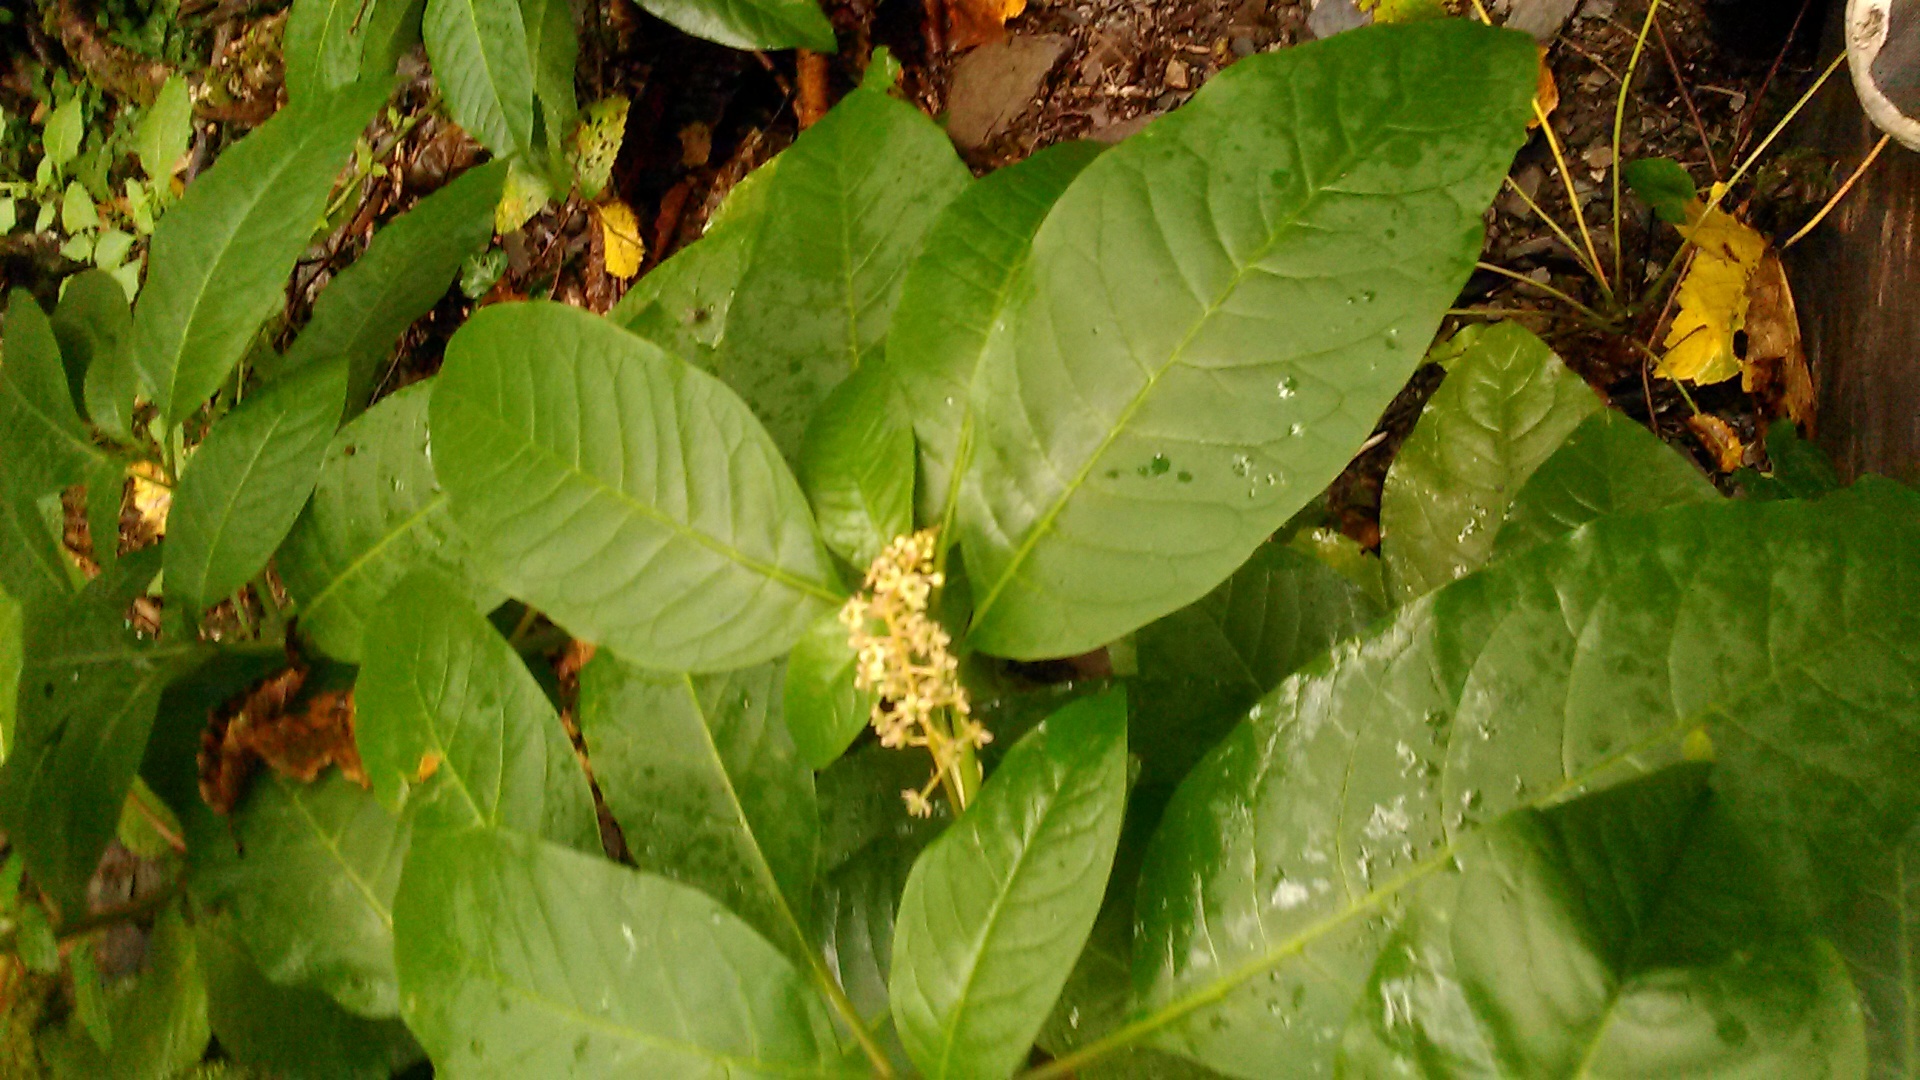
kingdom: Plantae
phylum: Tracheophyta
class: Magnoliopsida
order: Caryophyllales
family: Phytolaccaceae
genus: Phytolacca
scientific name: Phytolacca americana
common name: American pokeweed
